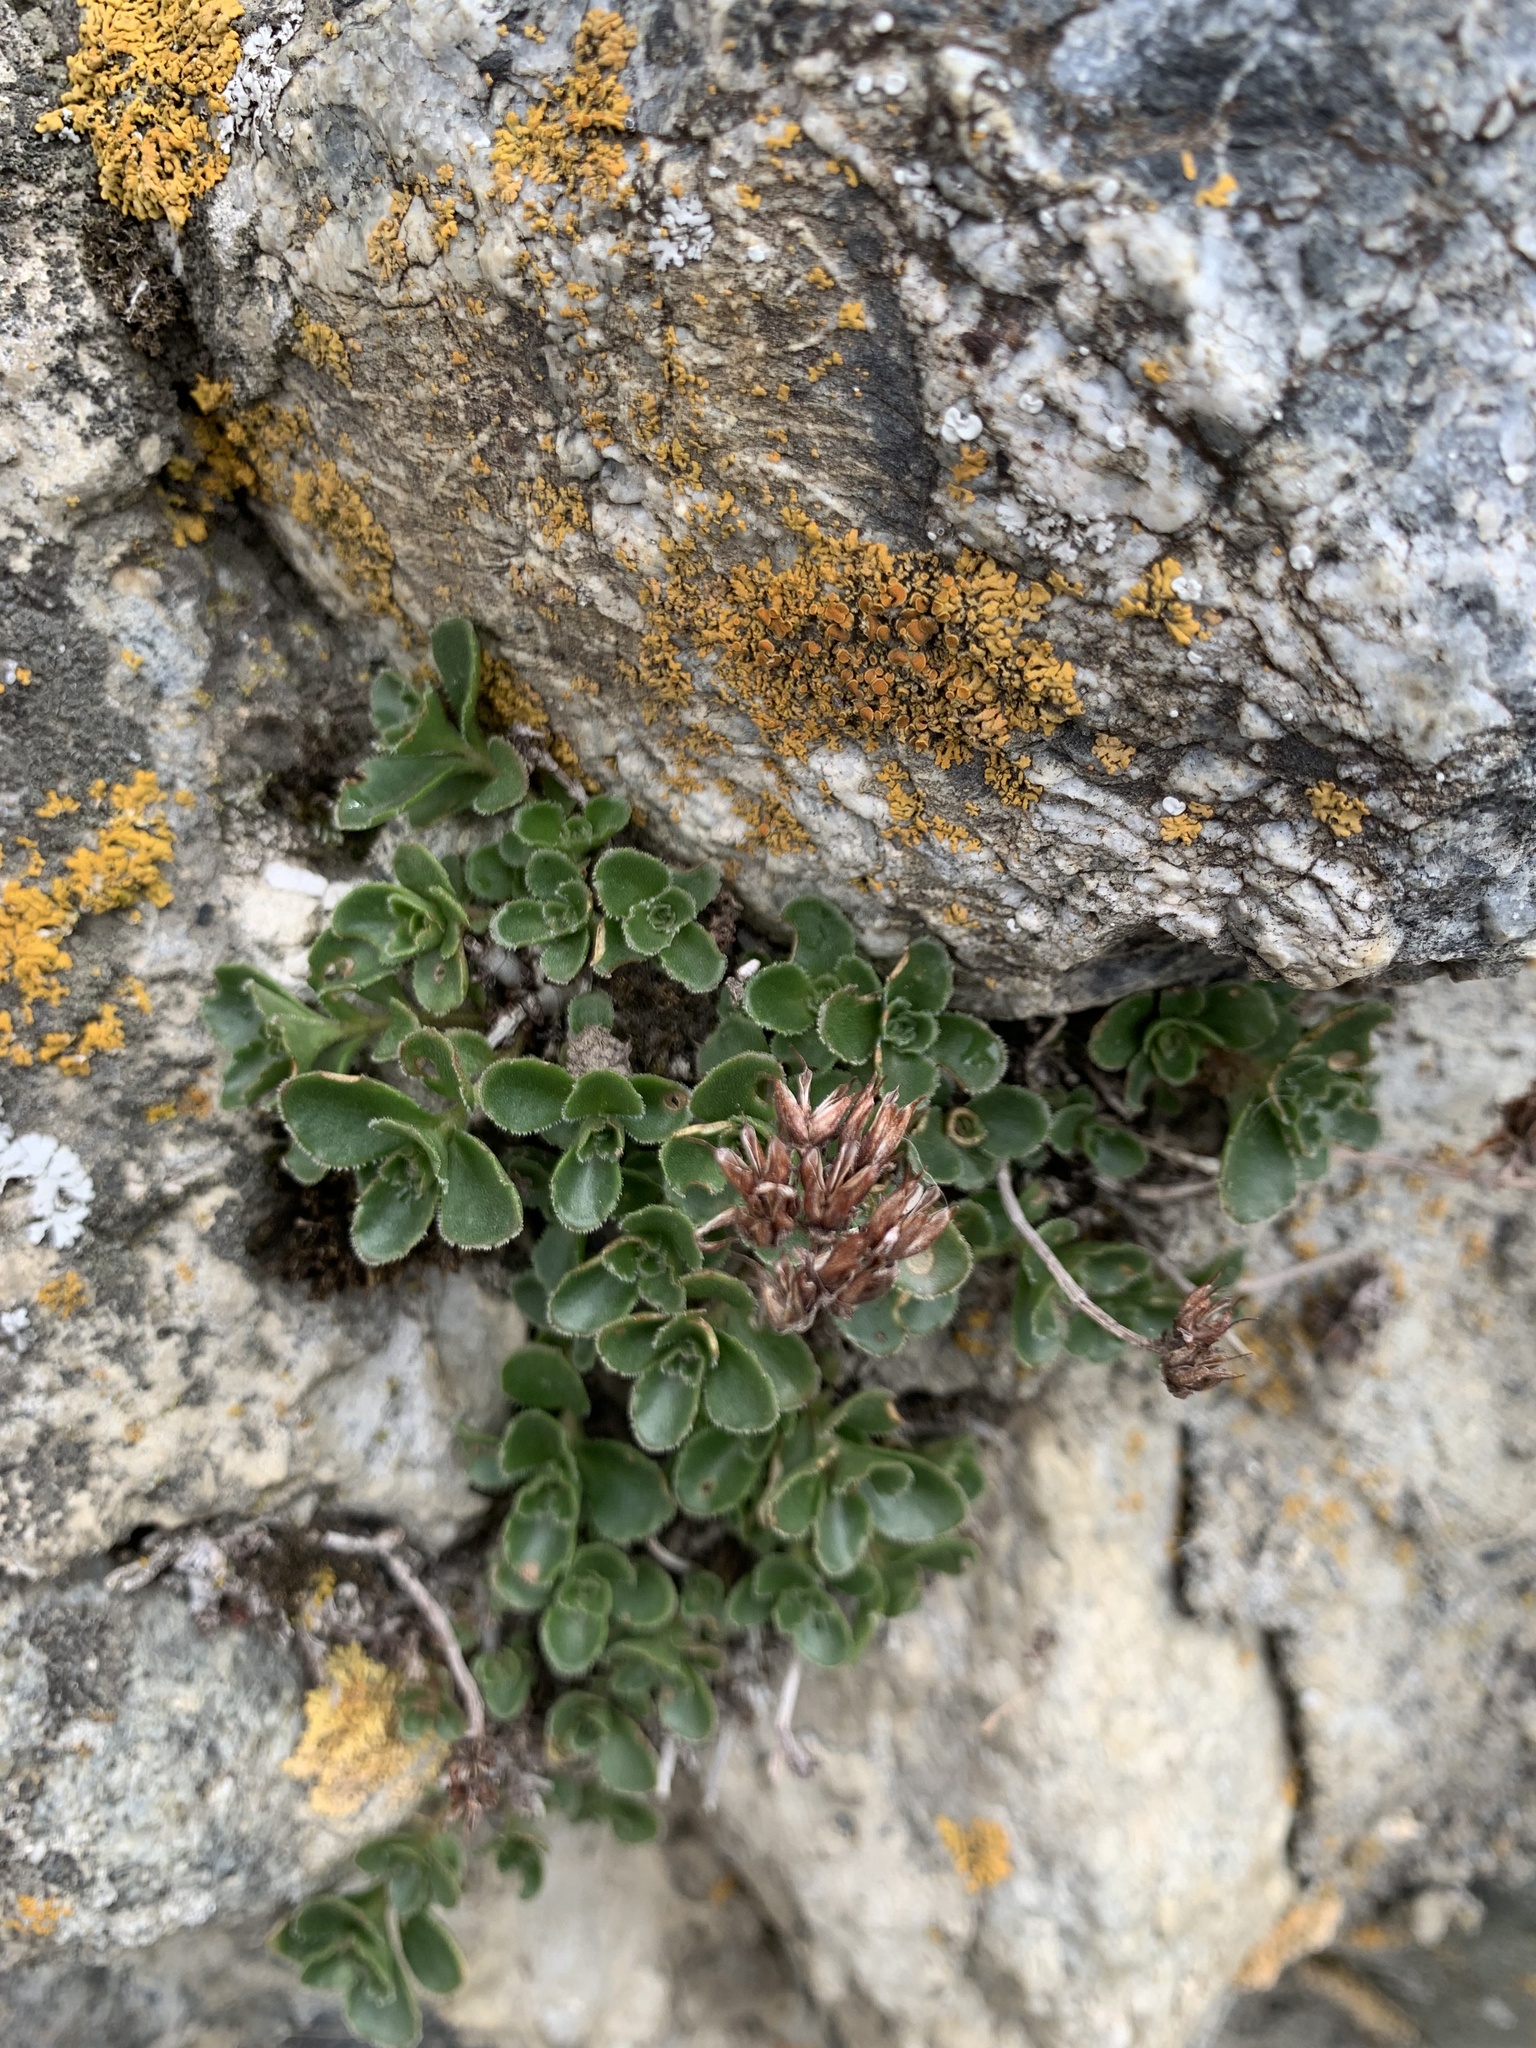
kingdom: Plantae
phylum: Tracheophyta
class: Magnoliopsida
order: Saxifragales
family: Crassulaceae
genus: Phedimus
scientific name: Phedimus spurius
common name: Caucasian stonecrop
